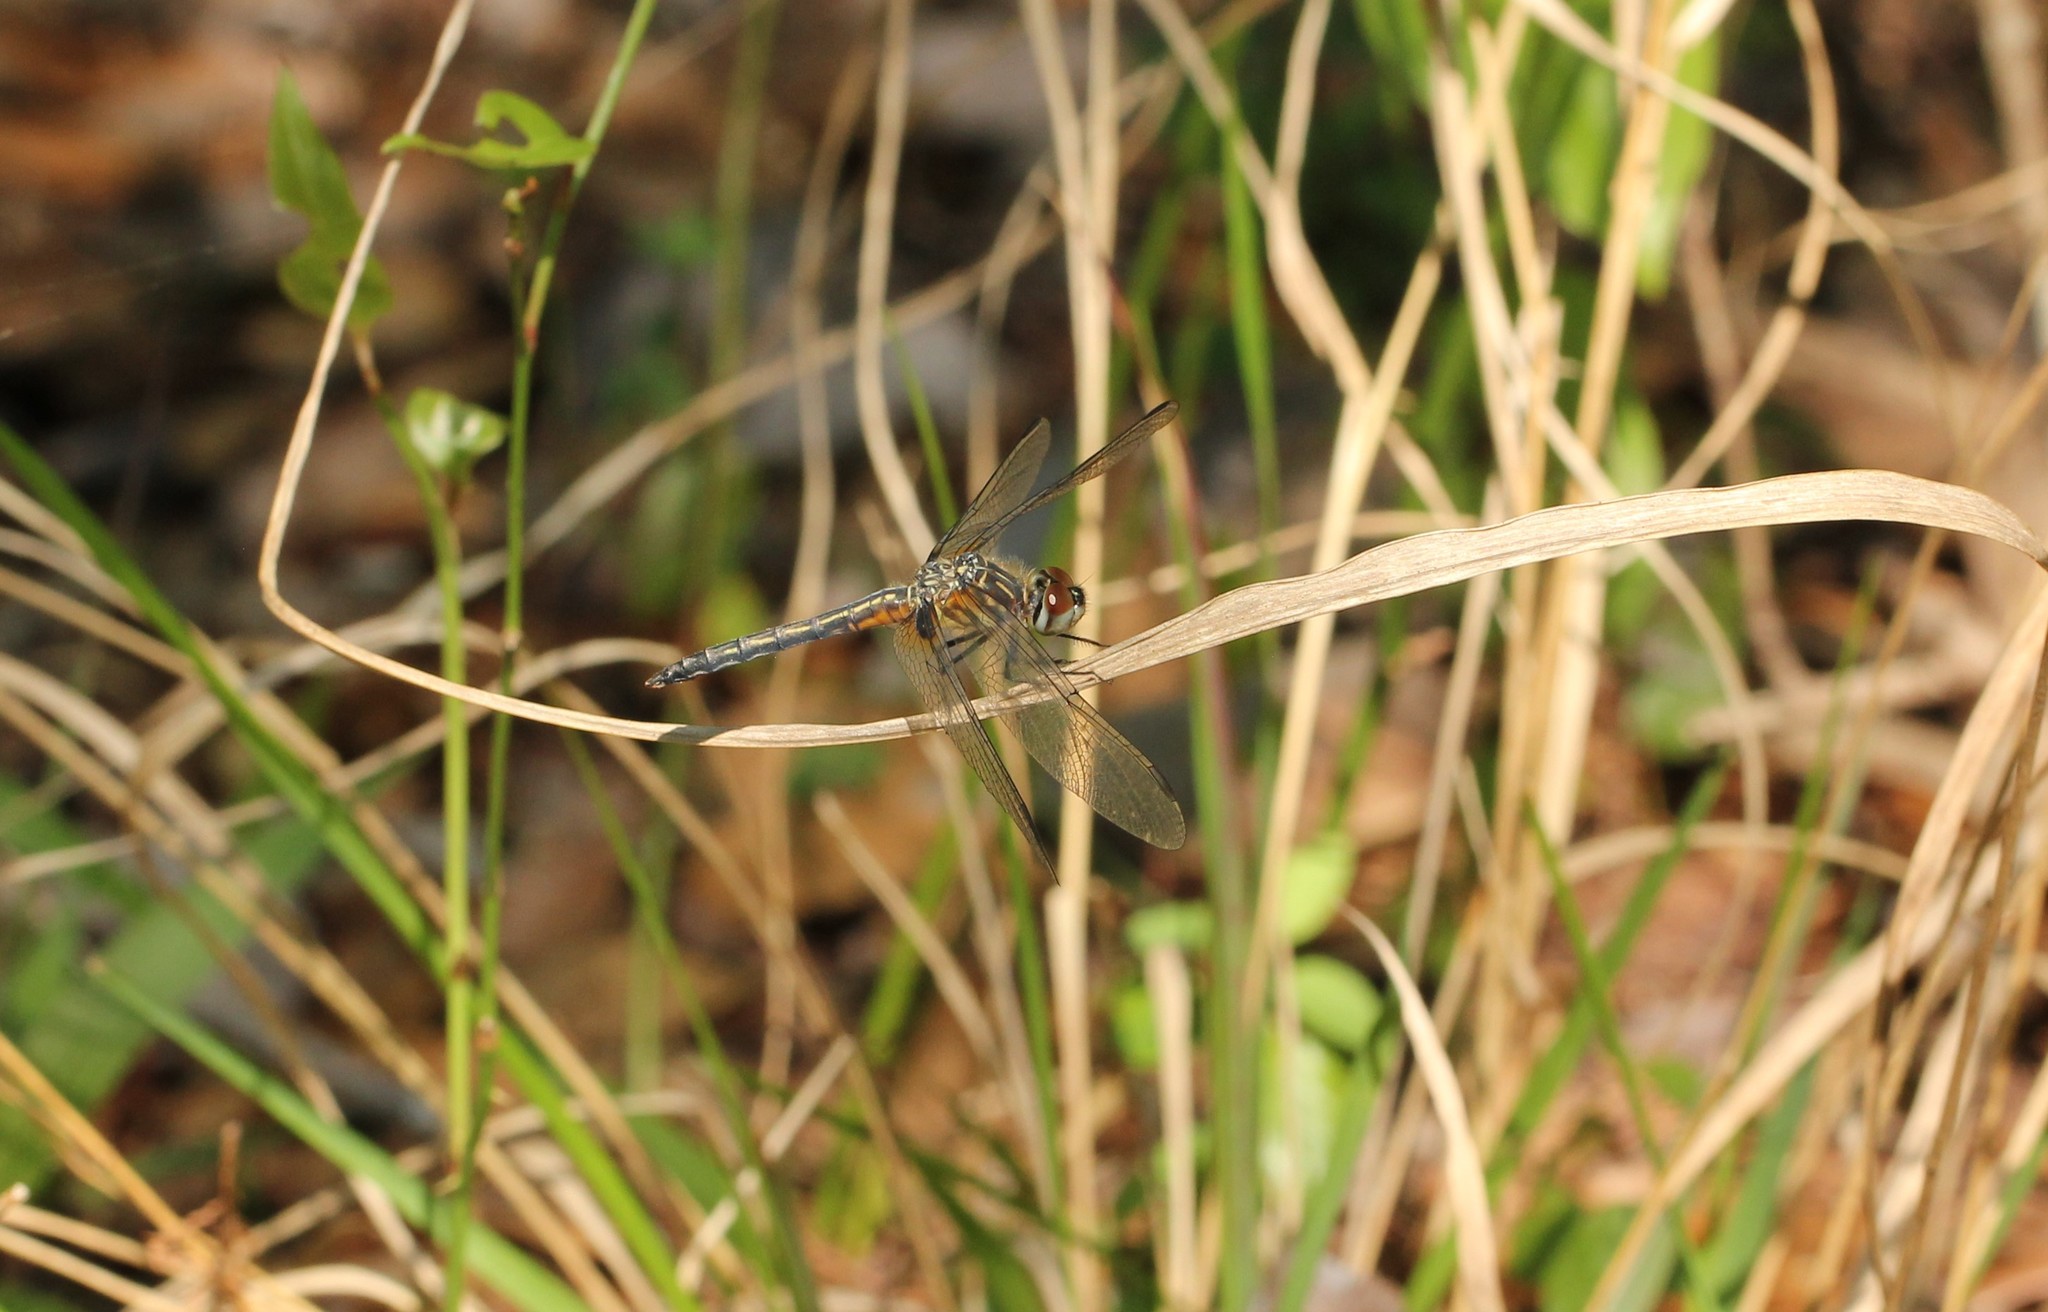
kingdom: Animalia
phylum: Arthropoda
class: Insecta
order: Odonata
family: Libellulidae
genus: Pachydiplax
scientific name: Pachydiplax longipennis
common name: Blue dasher
